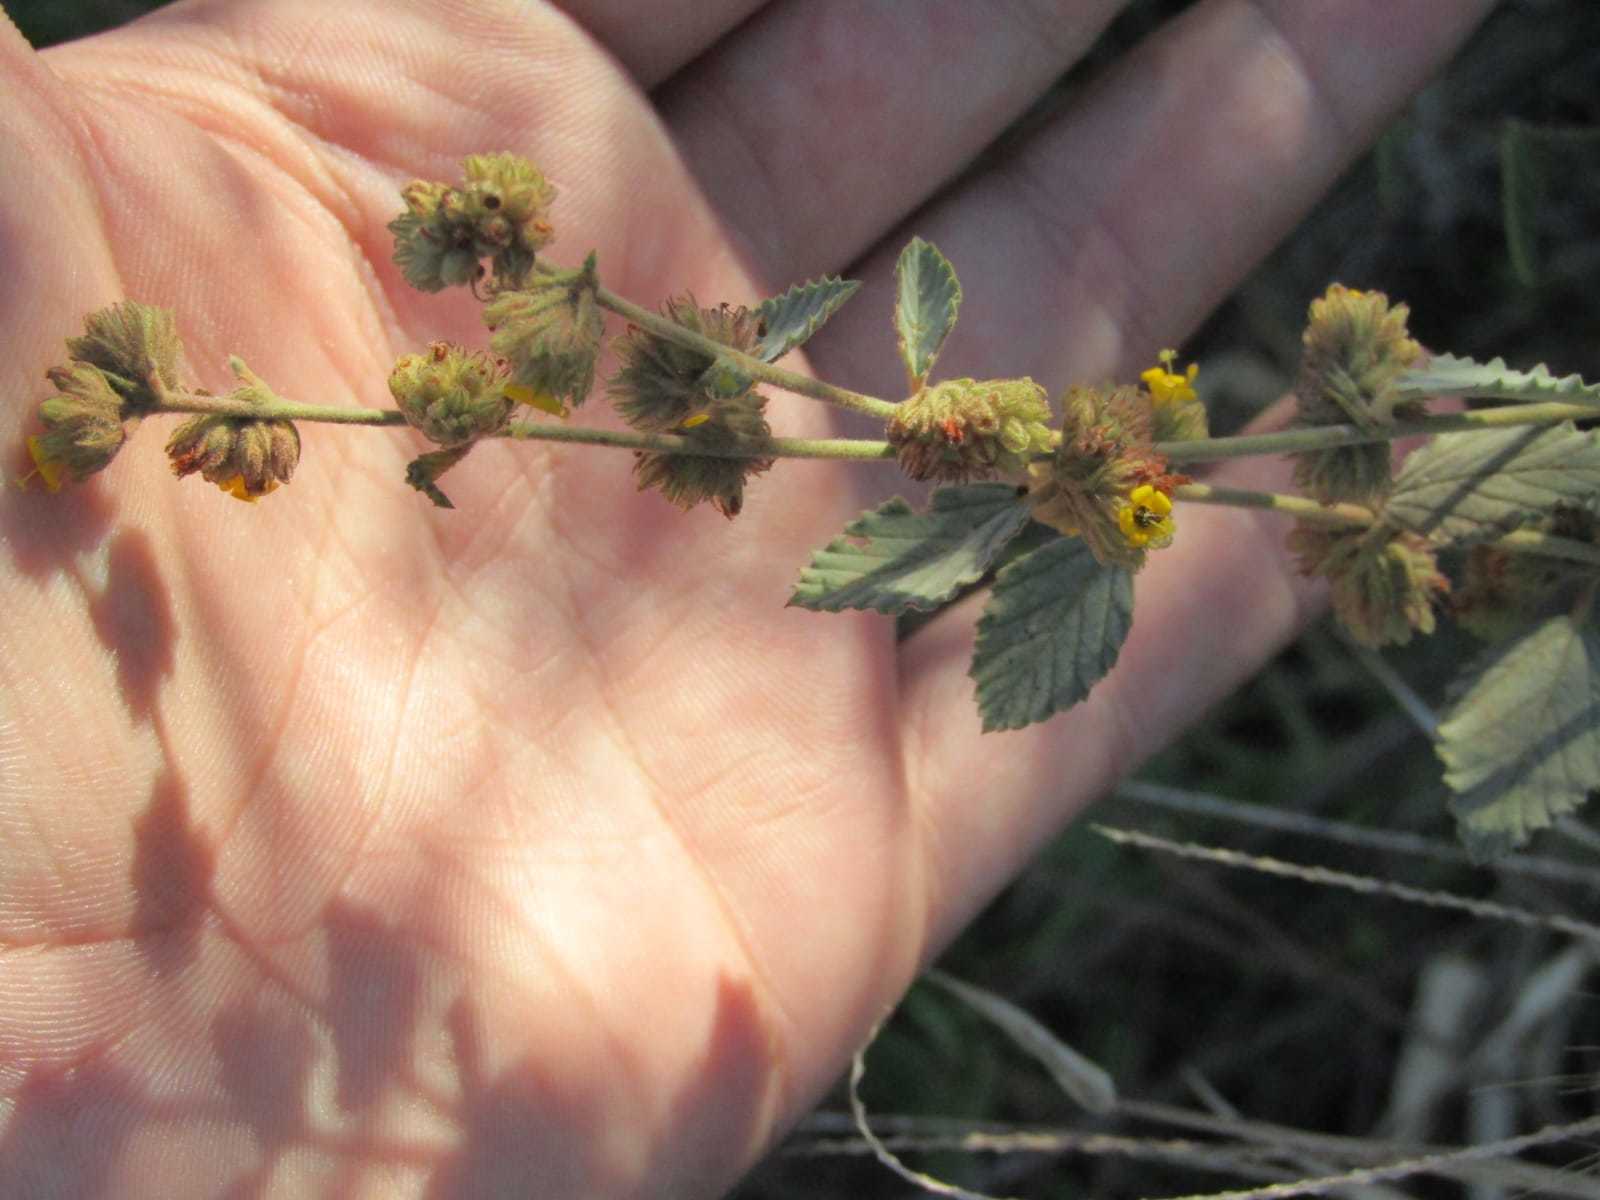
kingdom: Plantae
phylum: Tracheophyta
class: Magnoliopsida
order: Malvales
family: Malvaceae
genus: Waltheria
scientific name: Waltheria rotundifolia
